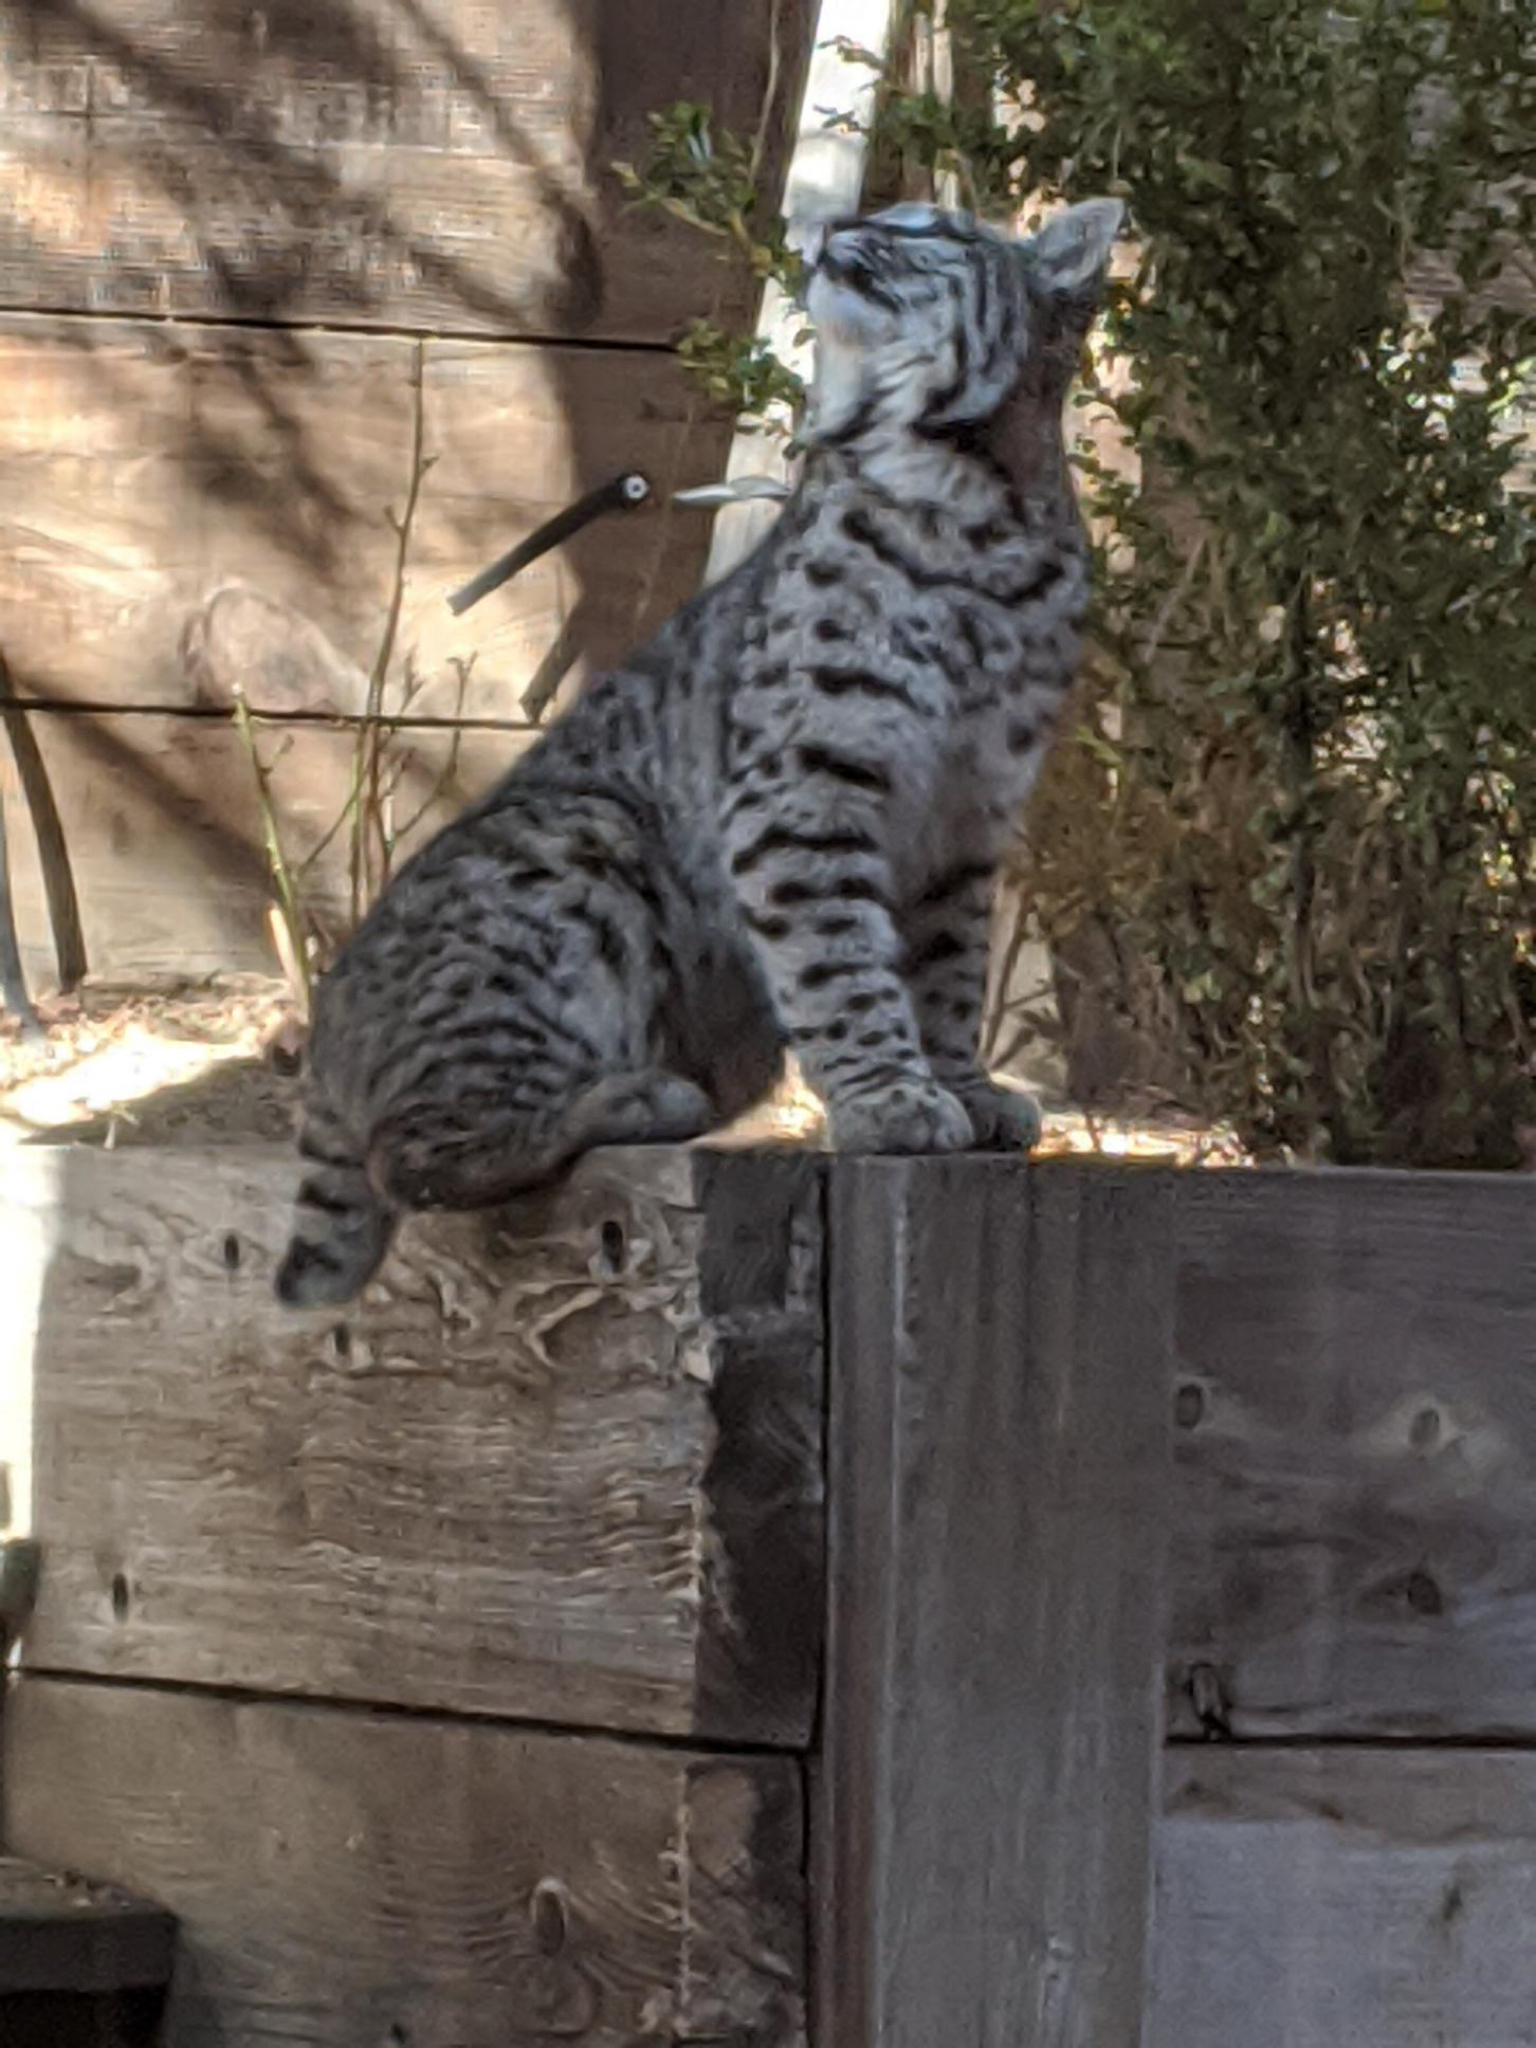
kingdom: Animalia
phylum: Chordata
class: Mammalia
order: Carnivora
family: Felidae
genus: Lynx
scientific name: Lynx rufus
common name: Bobcat
